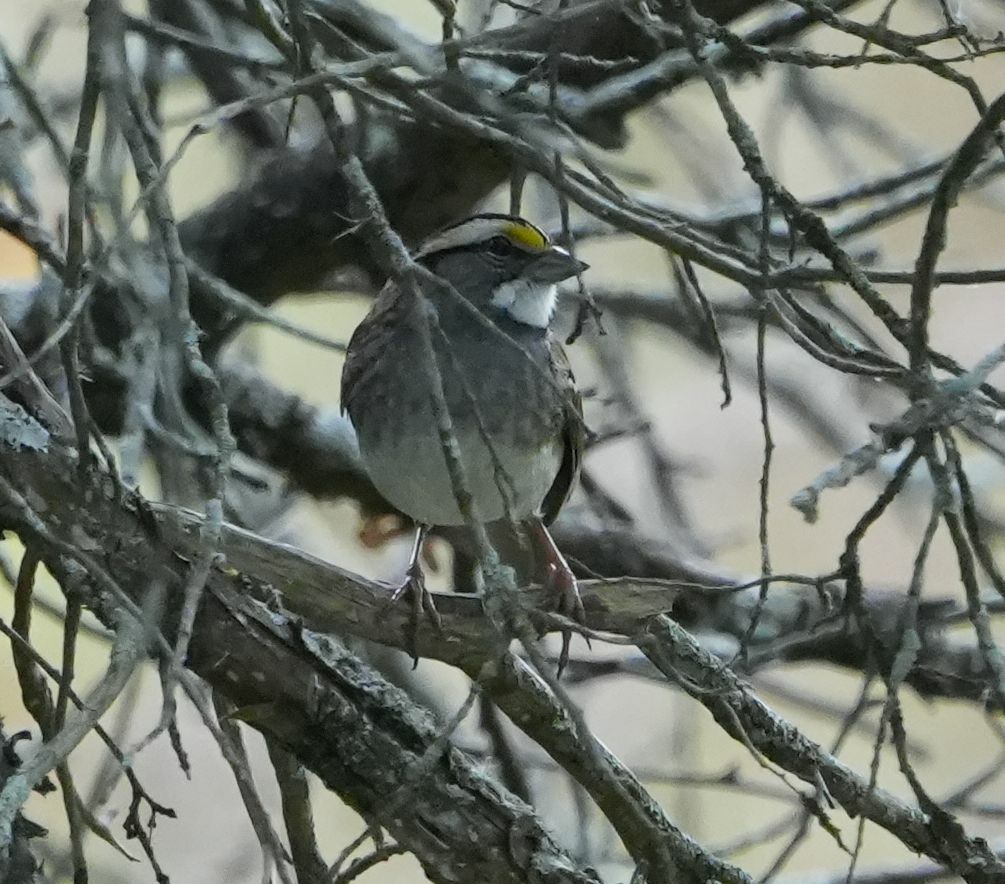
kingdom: Animalia
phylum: Chordata
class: Aves
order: Passeriformes
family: Passerellidae
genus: Zonotrichia
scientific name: Zonotrichia albicollis
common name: White-throated sparrow
